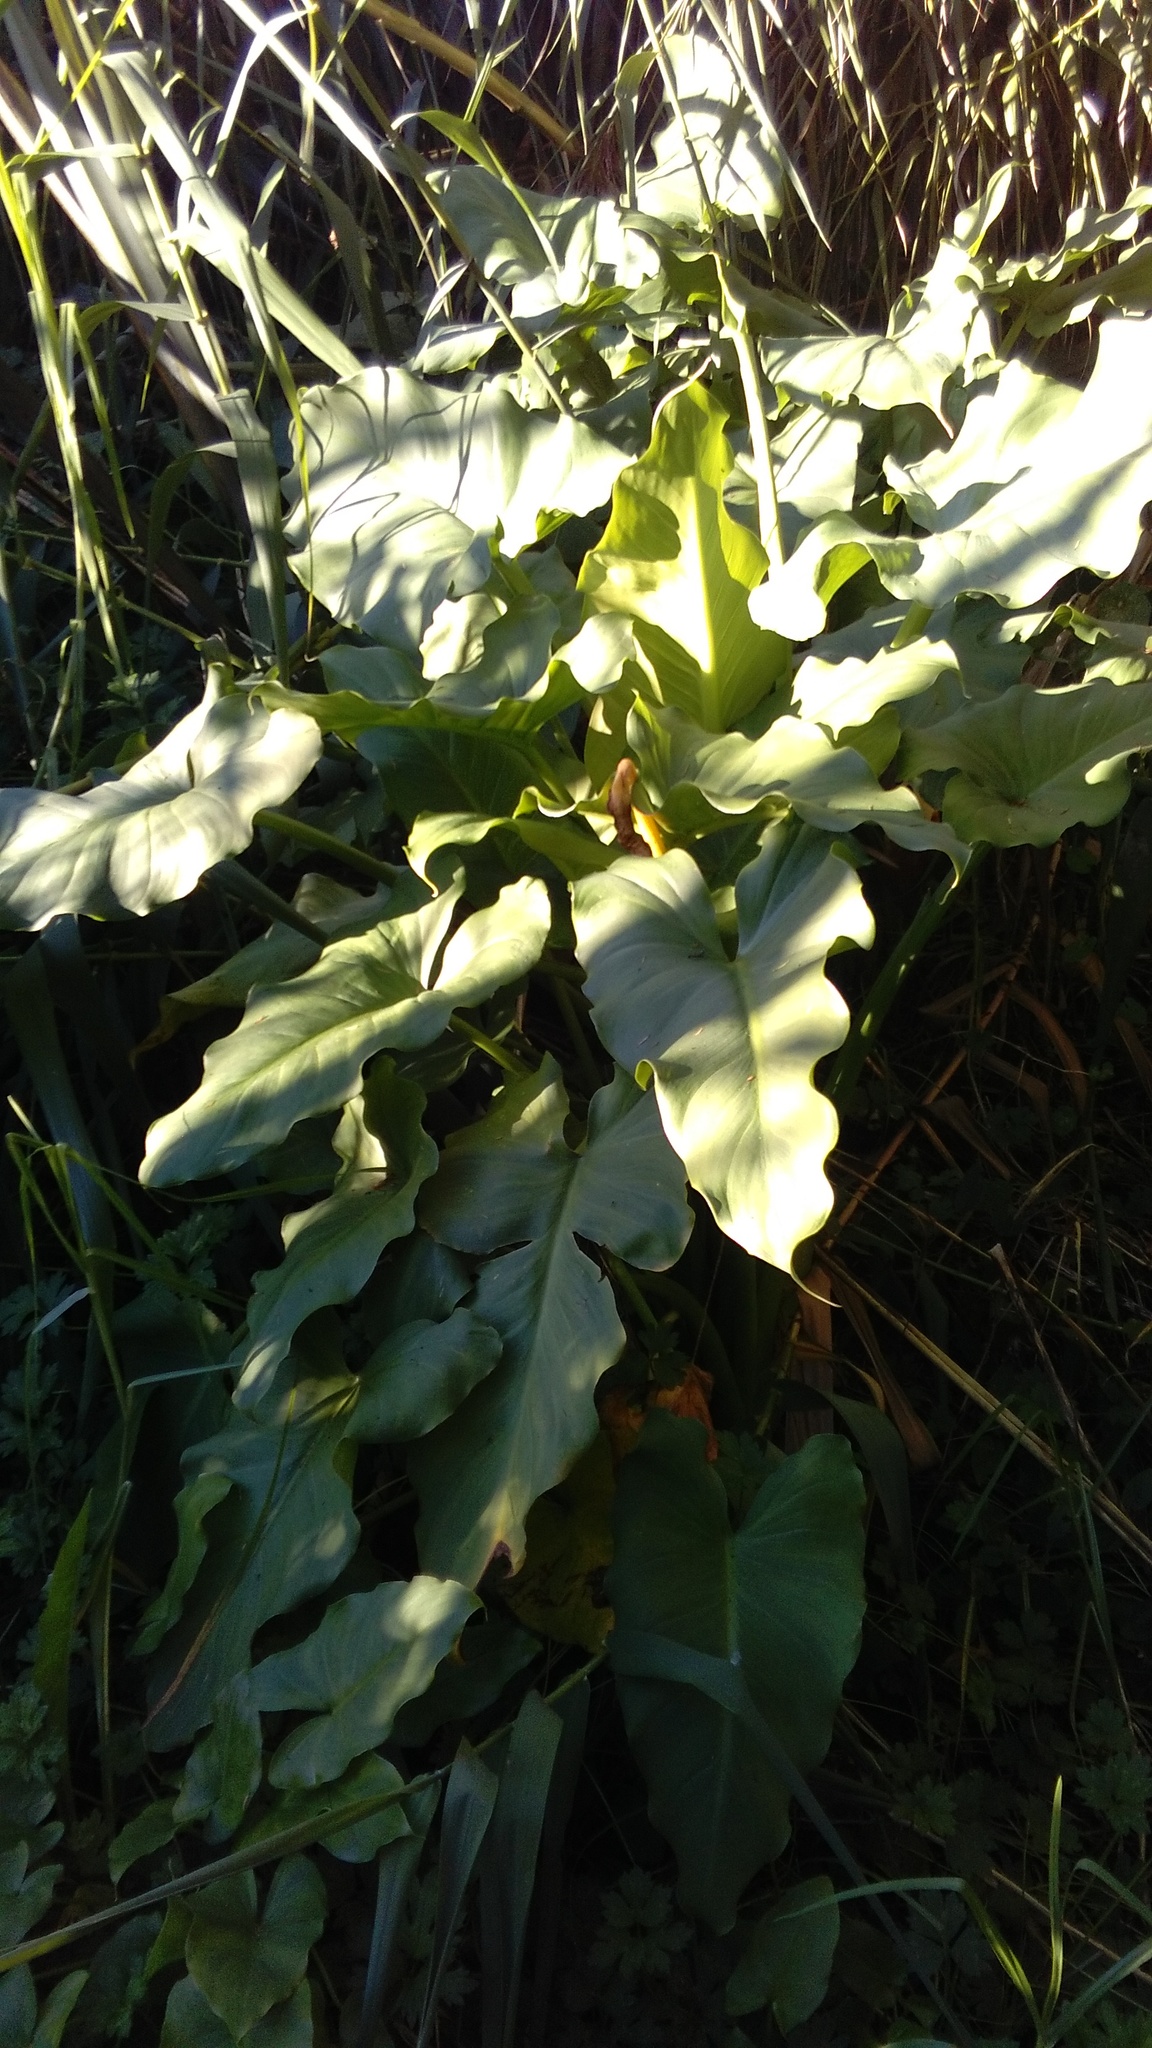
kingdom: Plantae
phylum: Tracheophyta
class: Liliopsida
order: Alismatales
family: Araceae
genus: Zantedeschia
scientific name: Zantedeschia aethiopica
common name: Altar-lily
